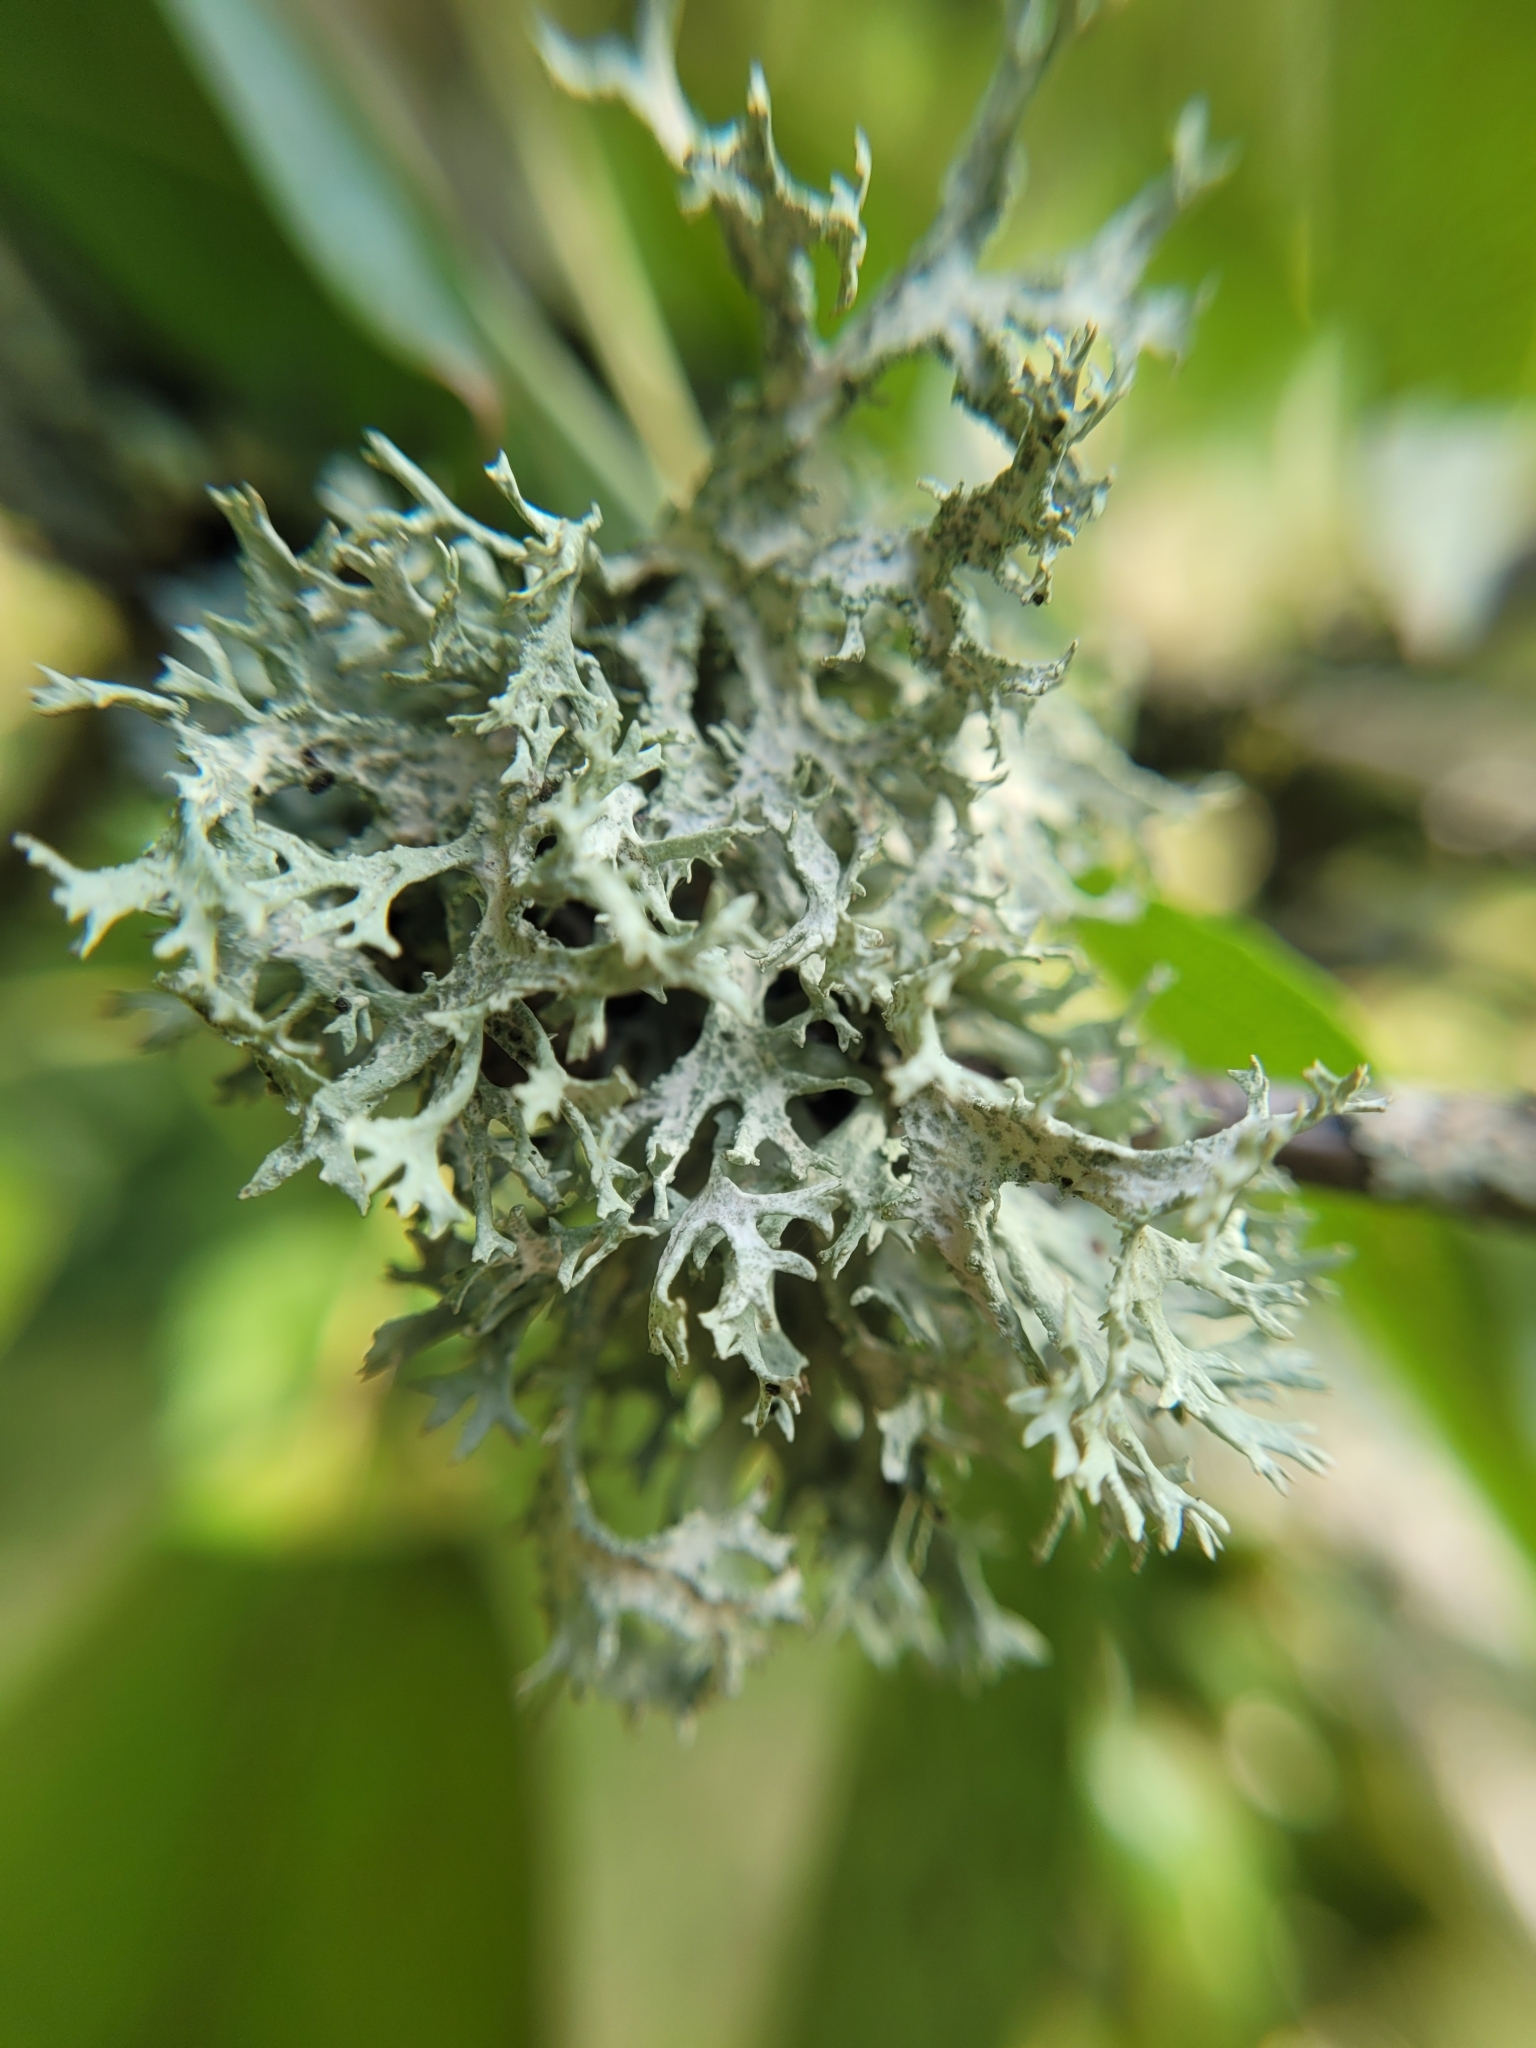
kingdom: Fungi
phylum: Ascomycota
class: Lecanoromycetes
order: Lecanorales
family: Parmeliaceae
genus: Evernia
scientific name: Evernia prunastri
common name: Oak moss
